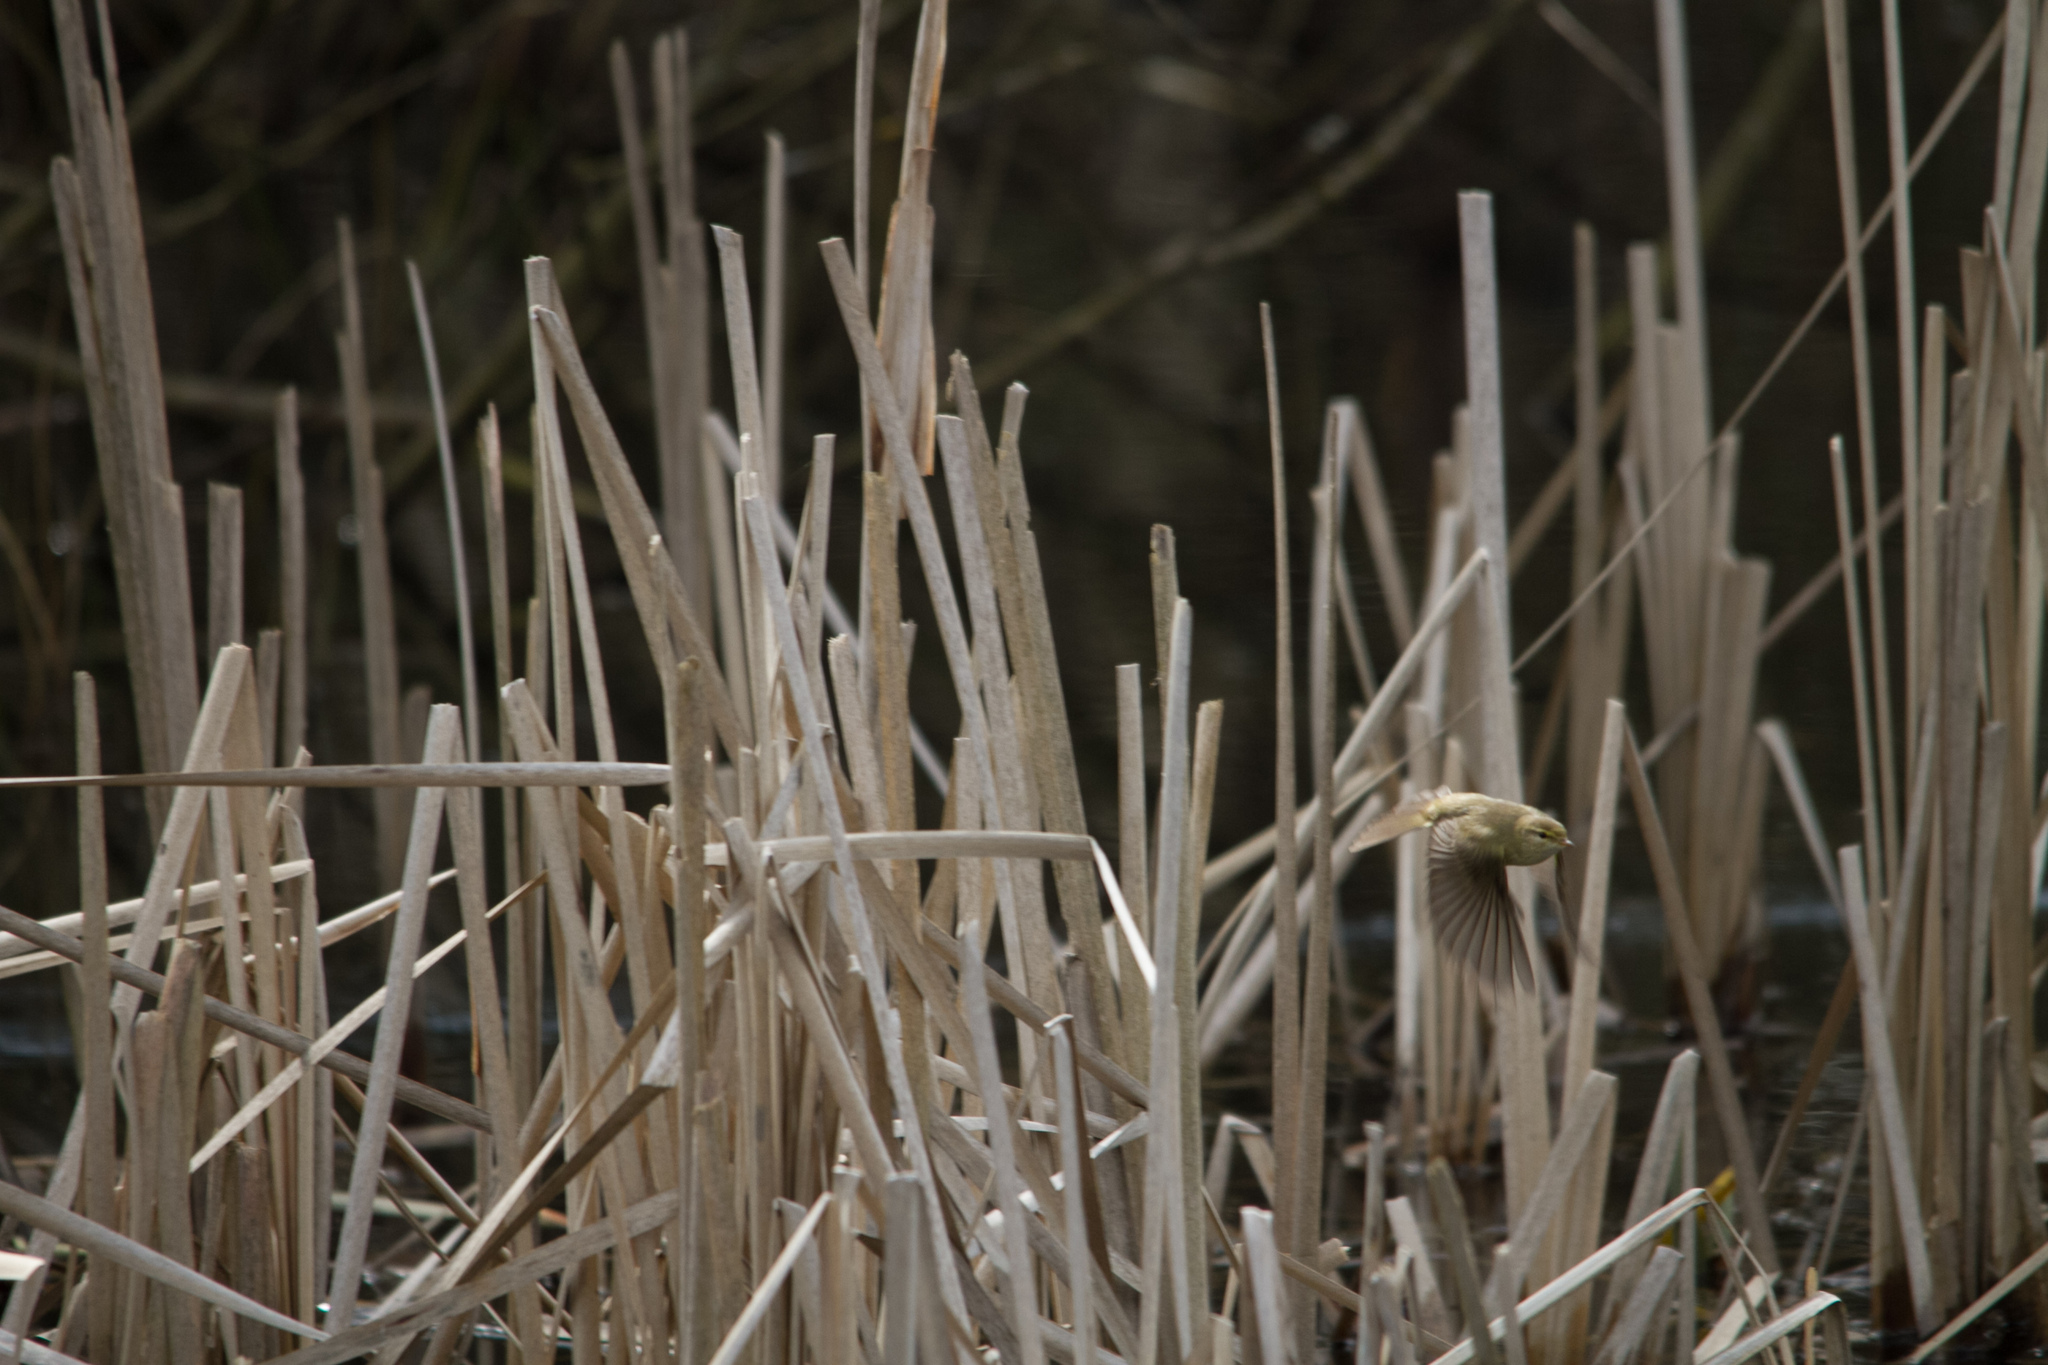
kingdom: Animalia
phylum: Chordata
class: Aves
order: Passeriformes
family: Phylloscopidae
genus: Phylloscopus
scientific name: Phylloscopus collybita
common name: Common chiffchaff
